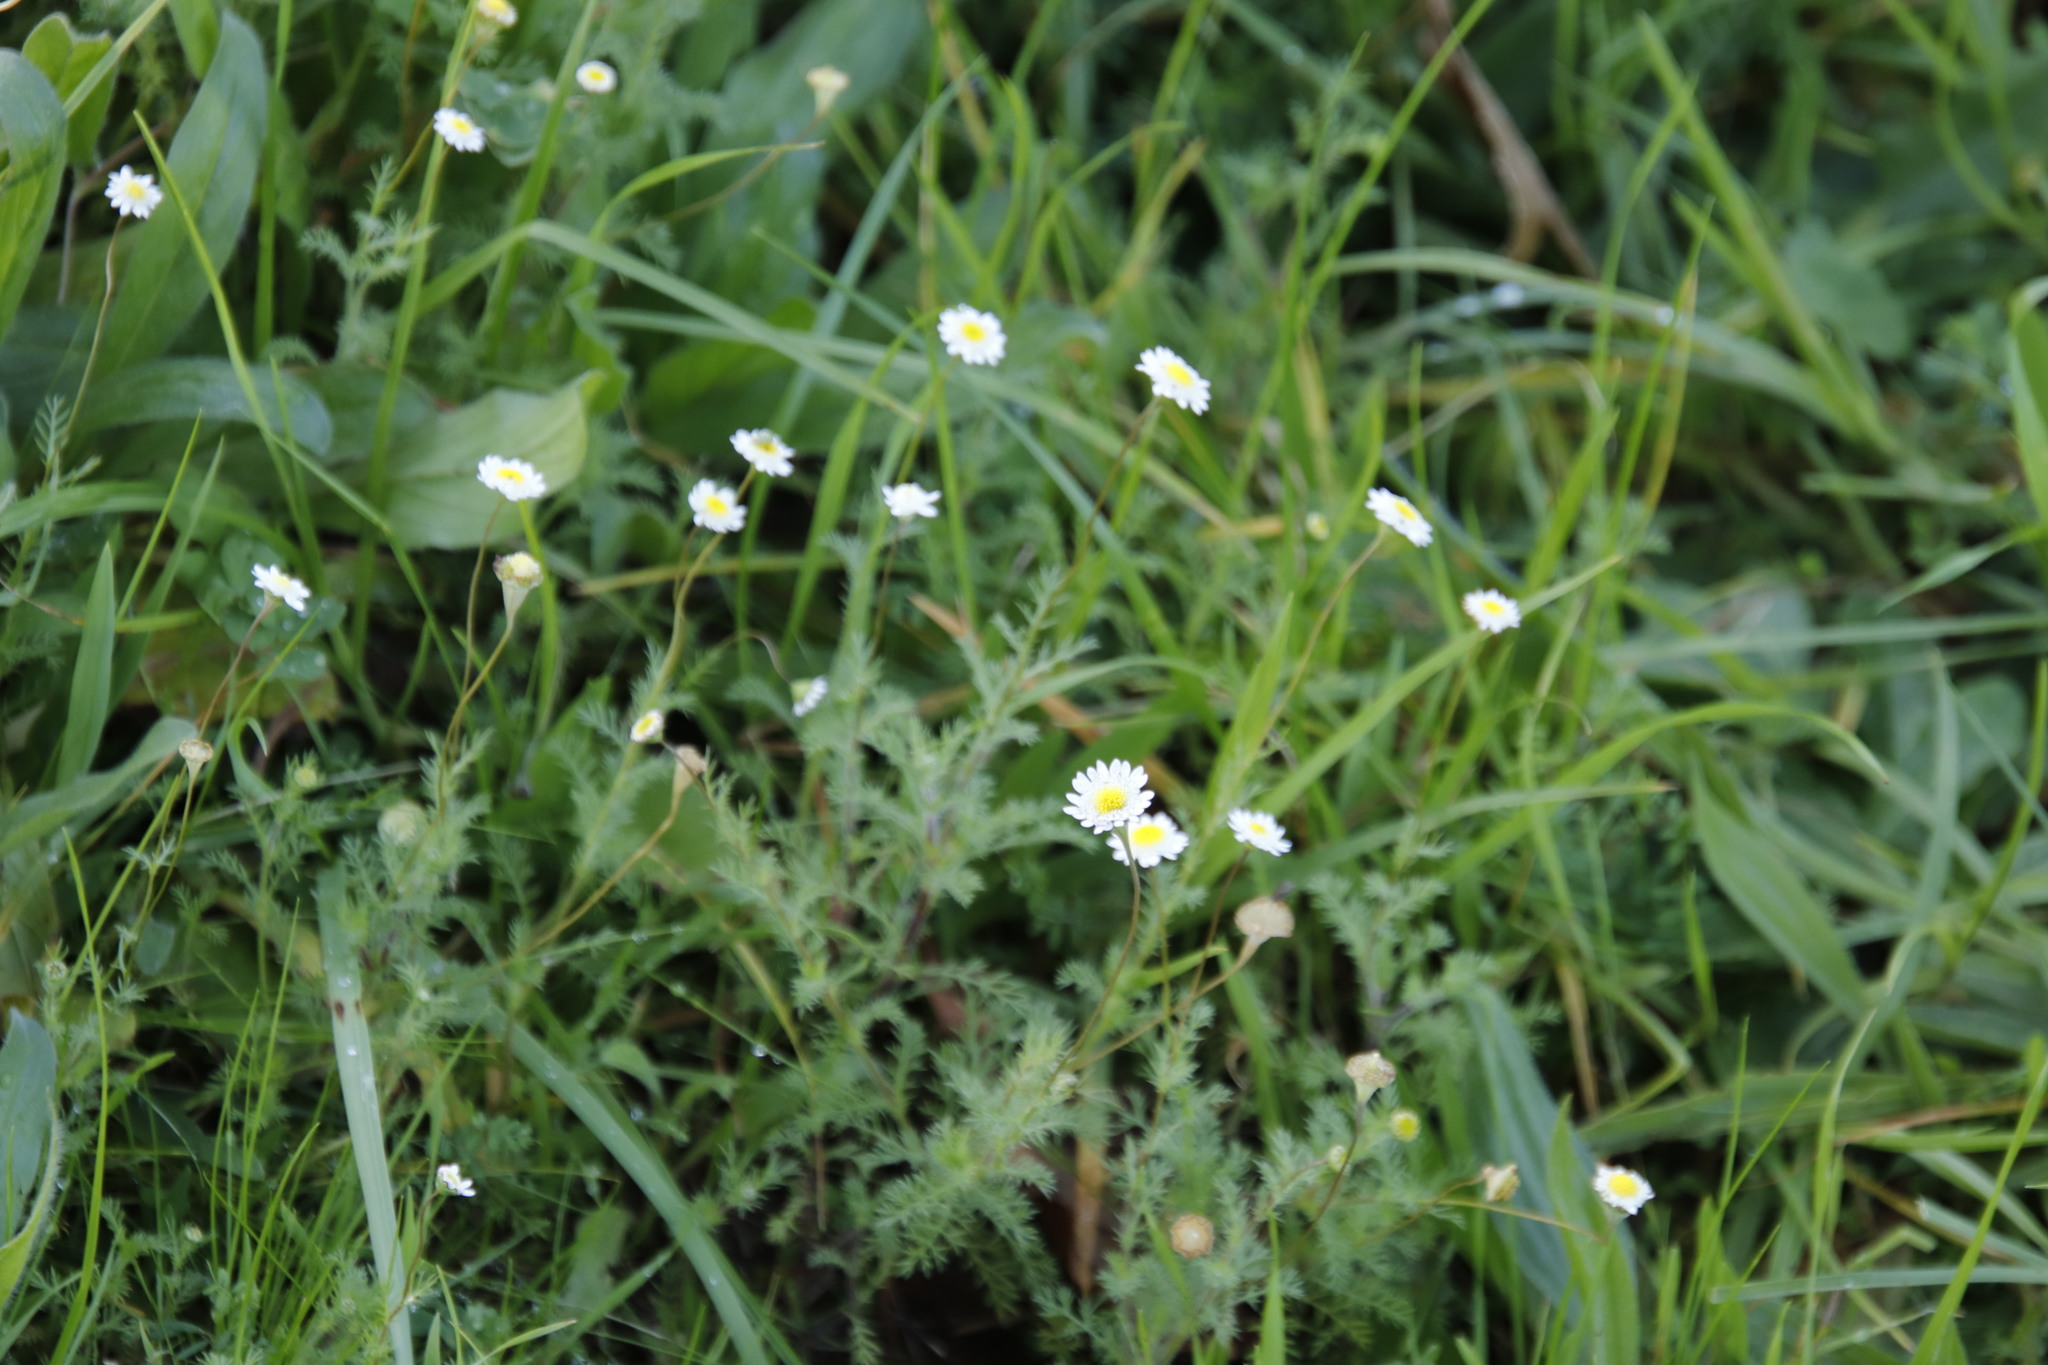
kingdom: Plantae
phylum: Tracheophyta
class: Magnoliopsida
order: Asterales
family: Asteraceae
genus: Cotula
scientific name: Cotula turbinata
